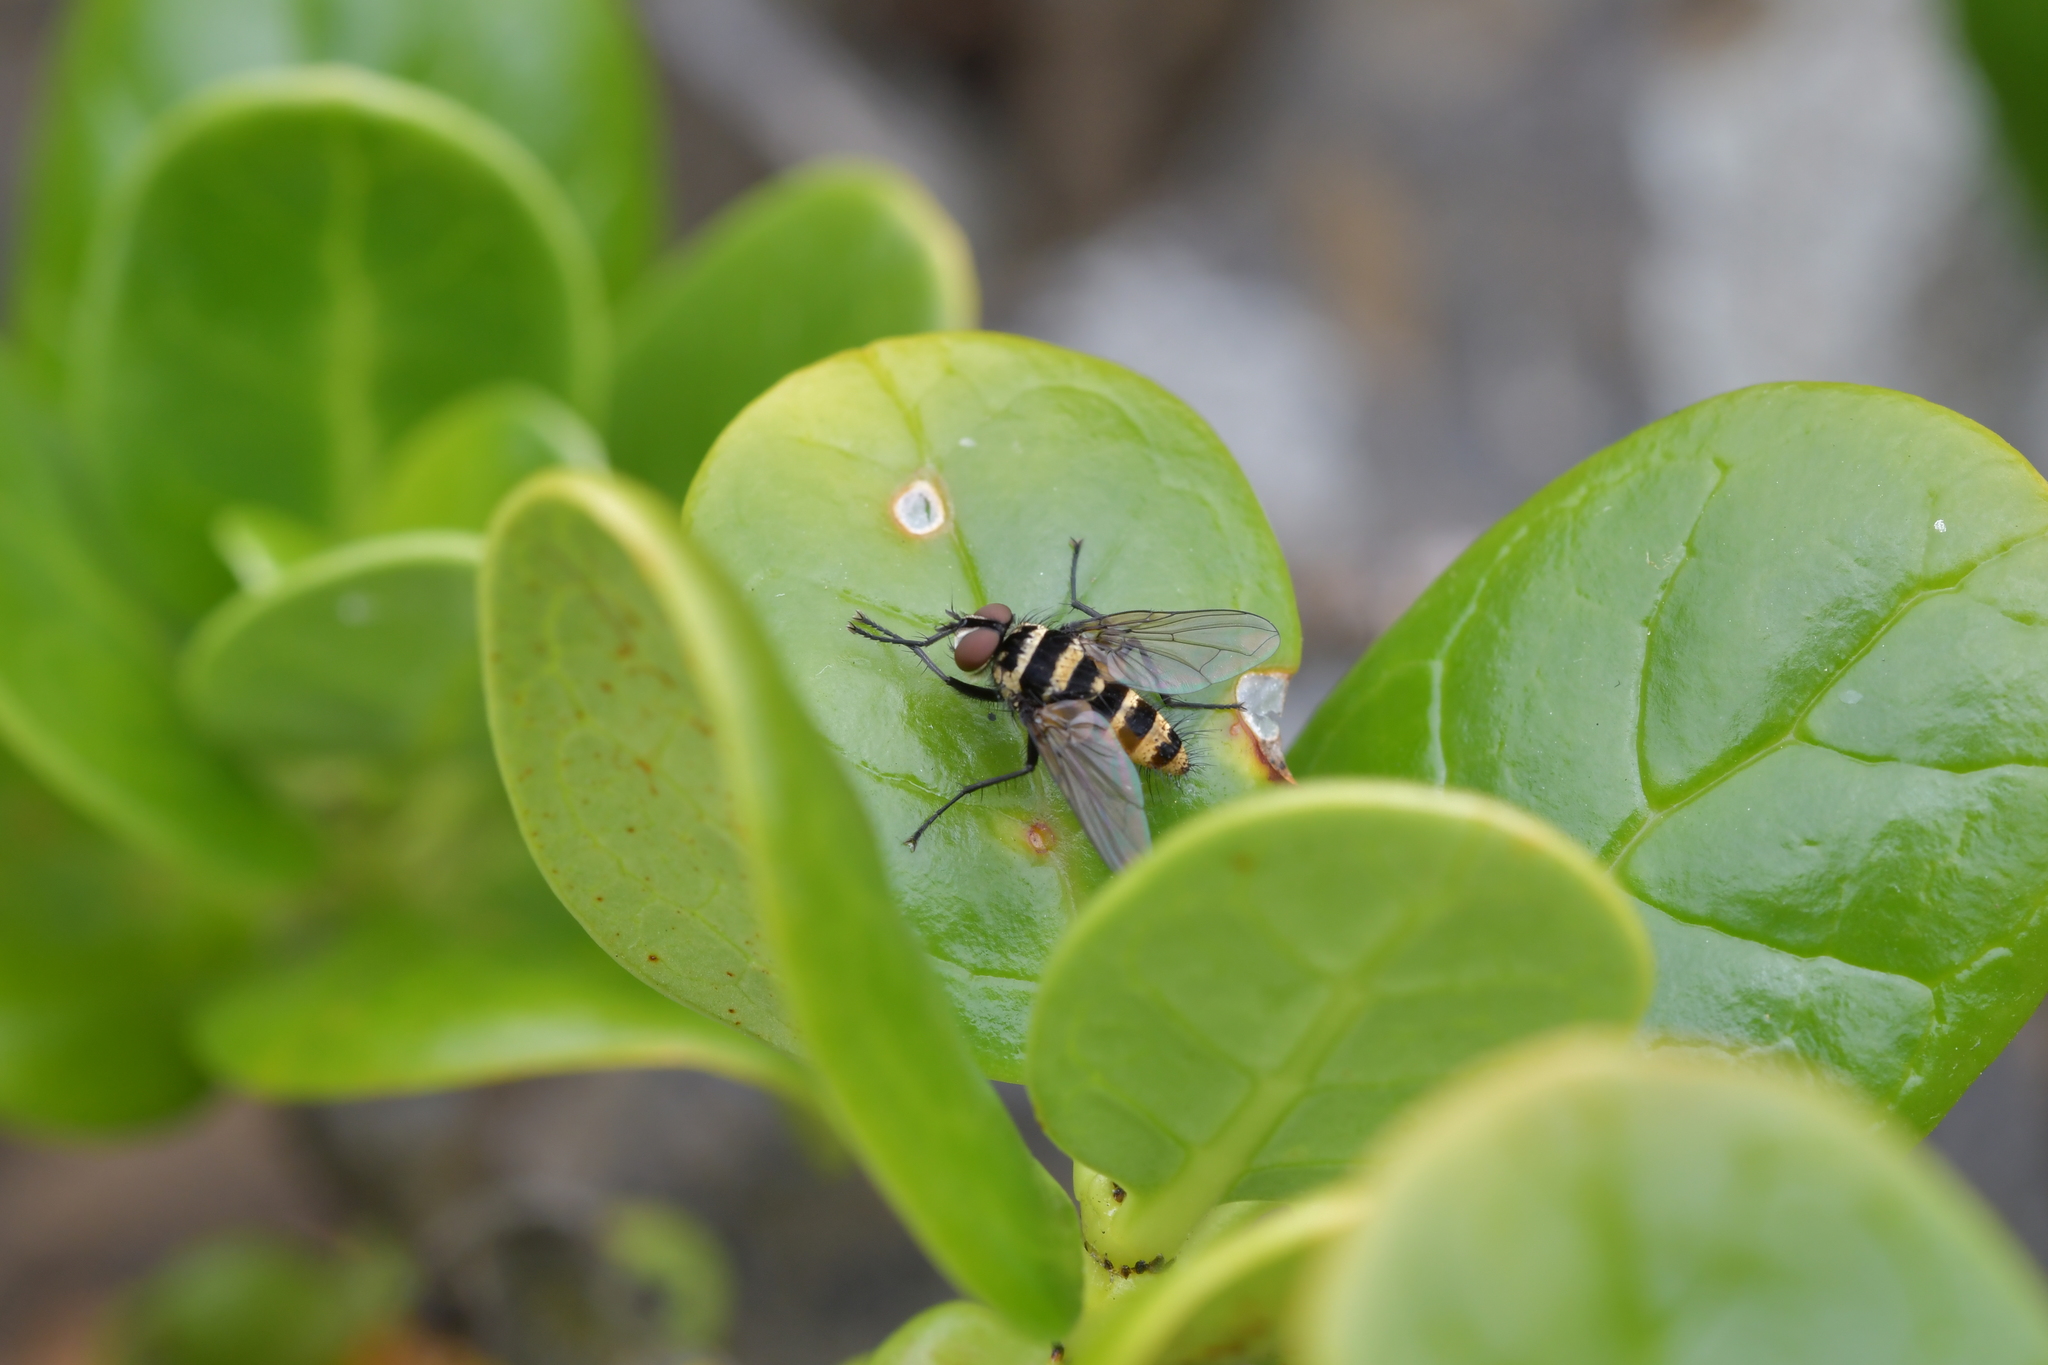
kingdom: Animalia
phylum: Arthropoda
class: Insecta
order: Diptera
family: Tachinidae
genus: Trigonospila
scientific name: Trigonospila brevifacies
